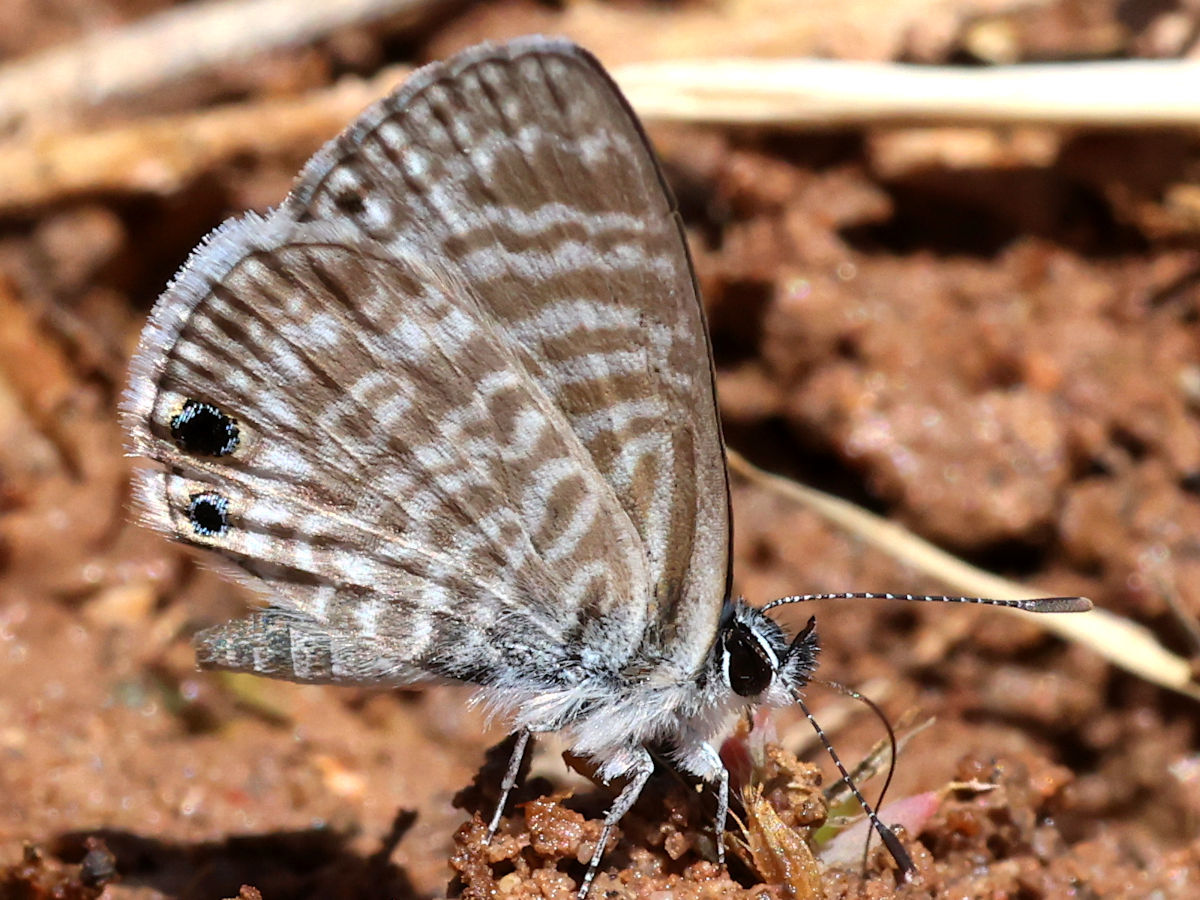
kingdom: Animalia
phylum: Arthropoda
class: Insecta
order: Lepidoptera
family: Lycaenidae
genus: Leptotes
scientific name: Leptotes marina
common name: Marine blue
